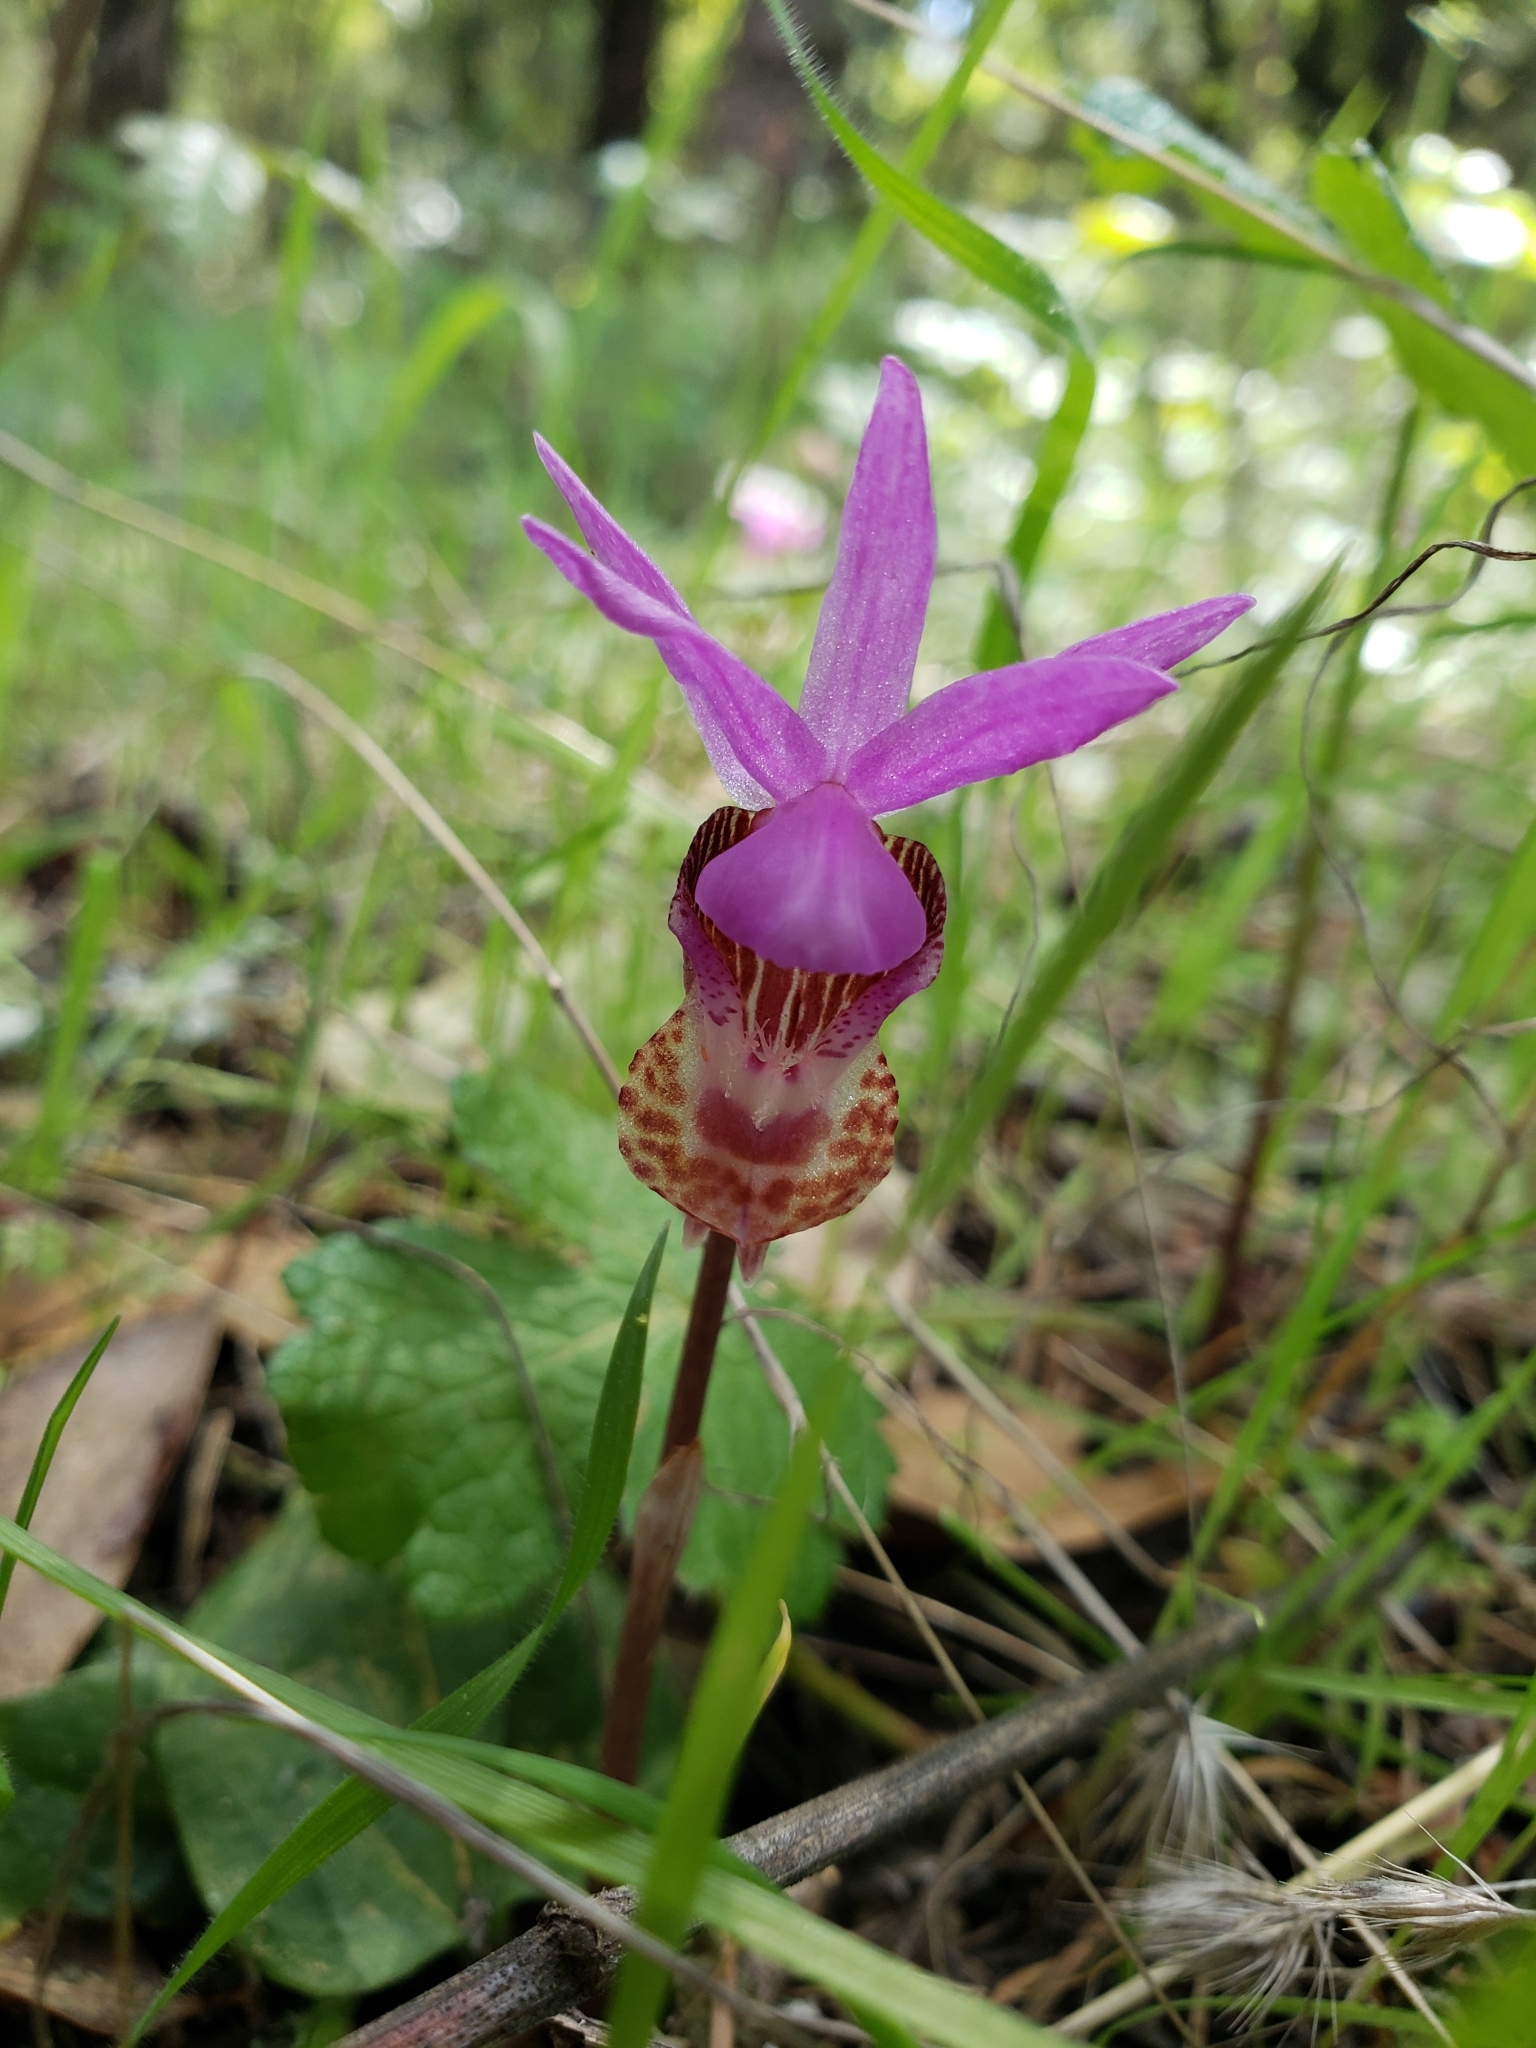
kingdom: Plantae
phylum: Tracheophyta
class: Liliopsida
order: Asparagales
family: Orchidaceae
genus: Calypso
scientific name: Calypso bulbosa
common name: Calypso
